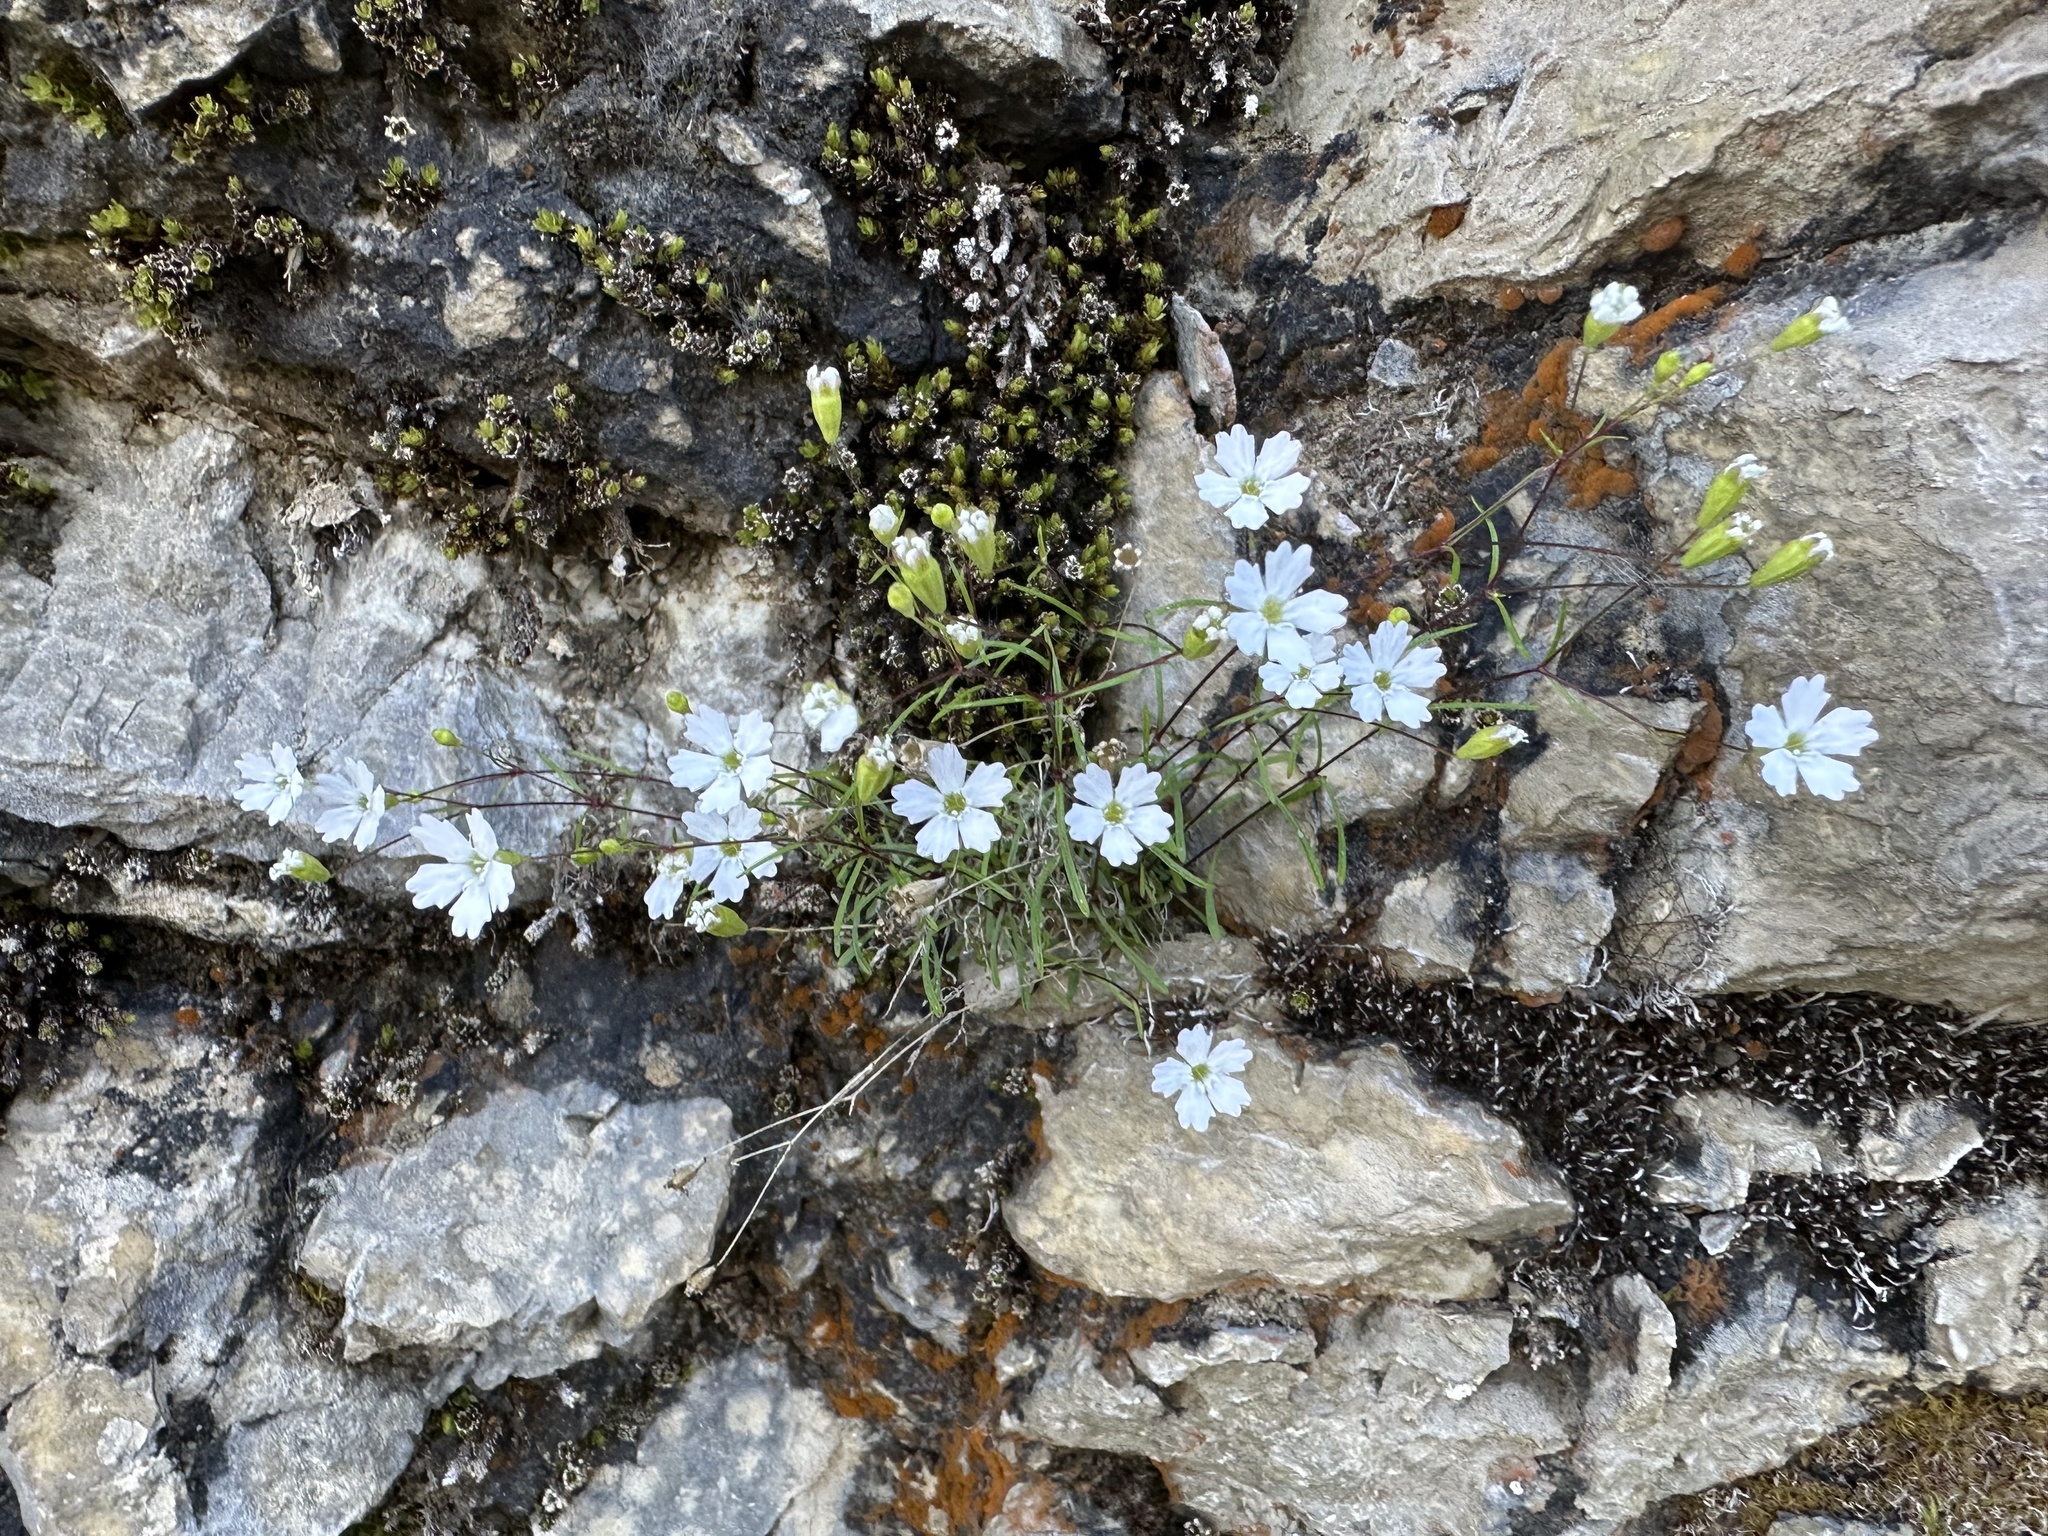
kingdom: Plantae
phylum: Tracheophyta
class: Magnoliopsida
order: Caryophyllales
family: Caryophyllaceae
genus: Heliosperma
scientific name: Heliosperma pusillum
